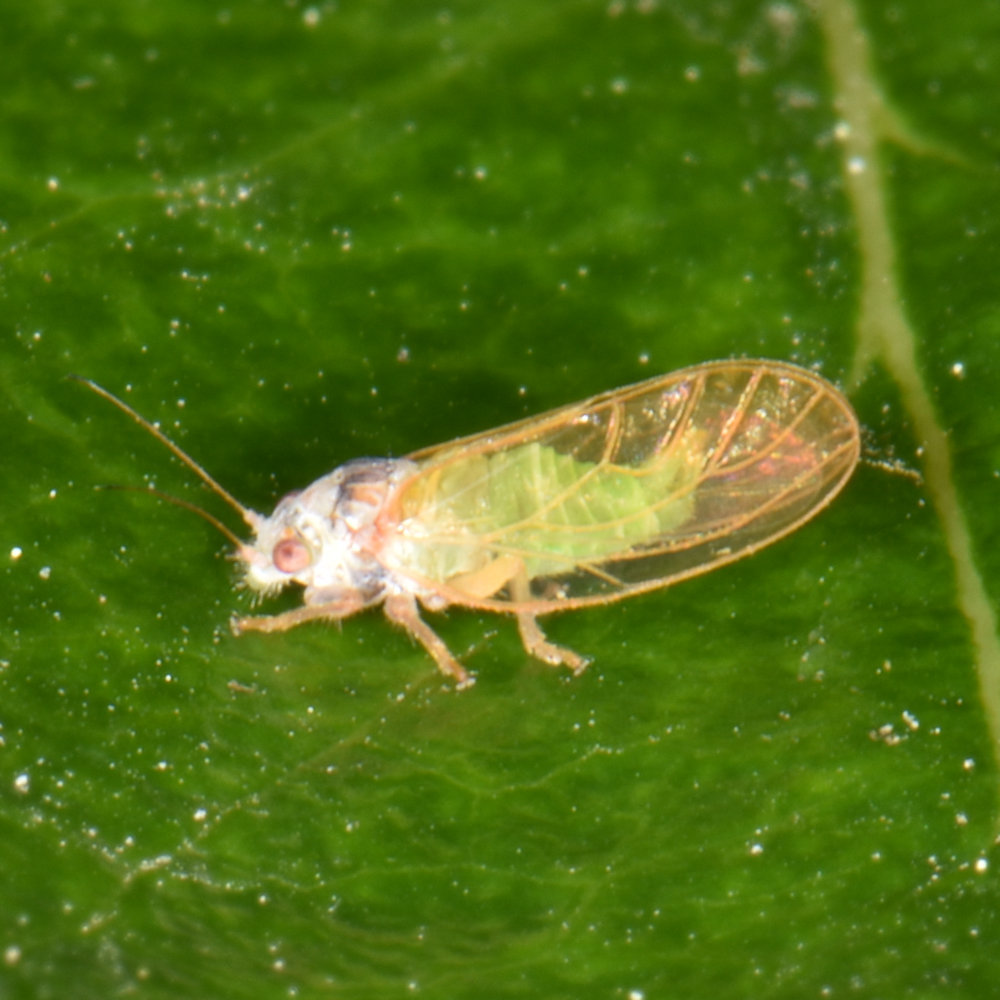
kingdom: Animalia
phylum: Arthropoda
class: Insecta
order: Hemiptera
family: Psyllidae
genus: Psylla
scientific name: Psylla buxi
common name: Boxwood psyllid
